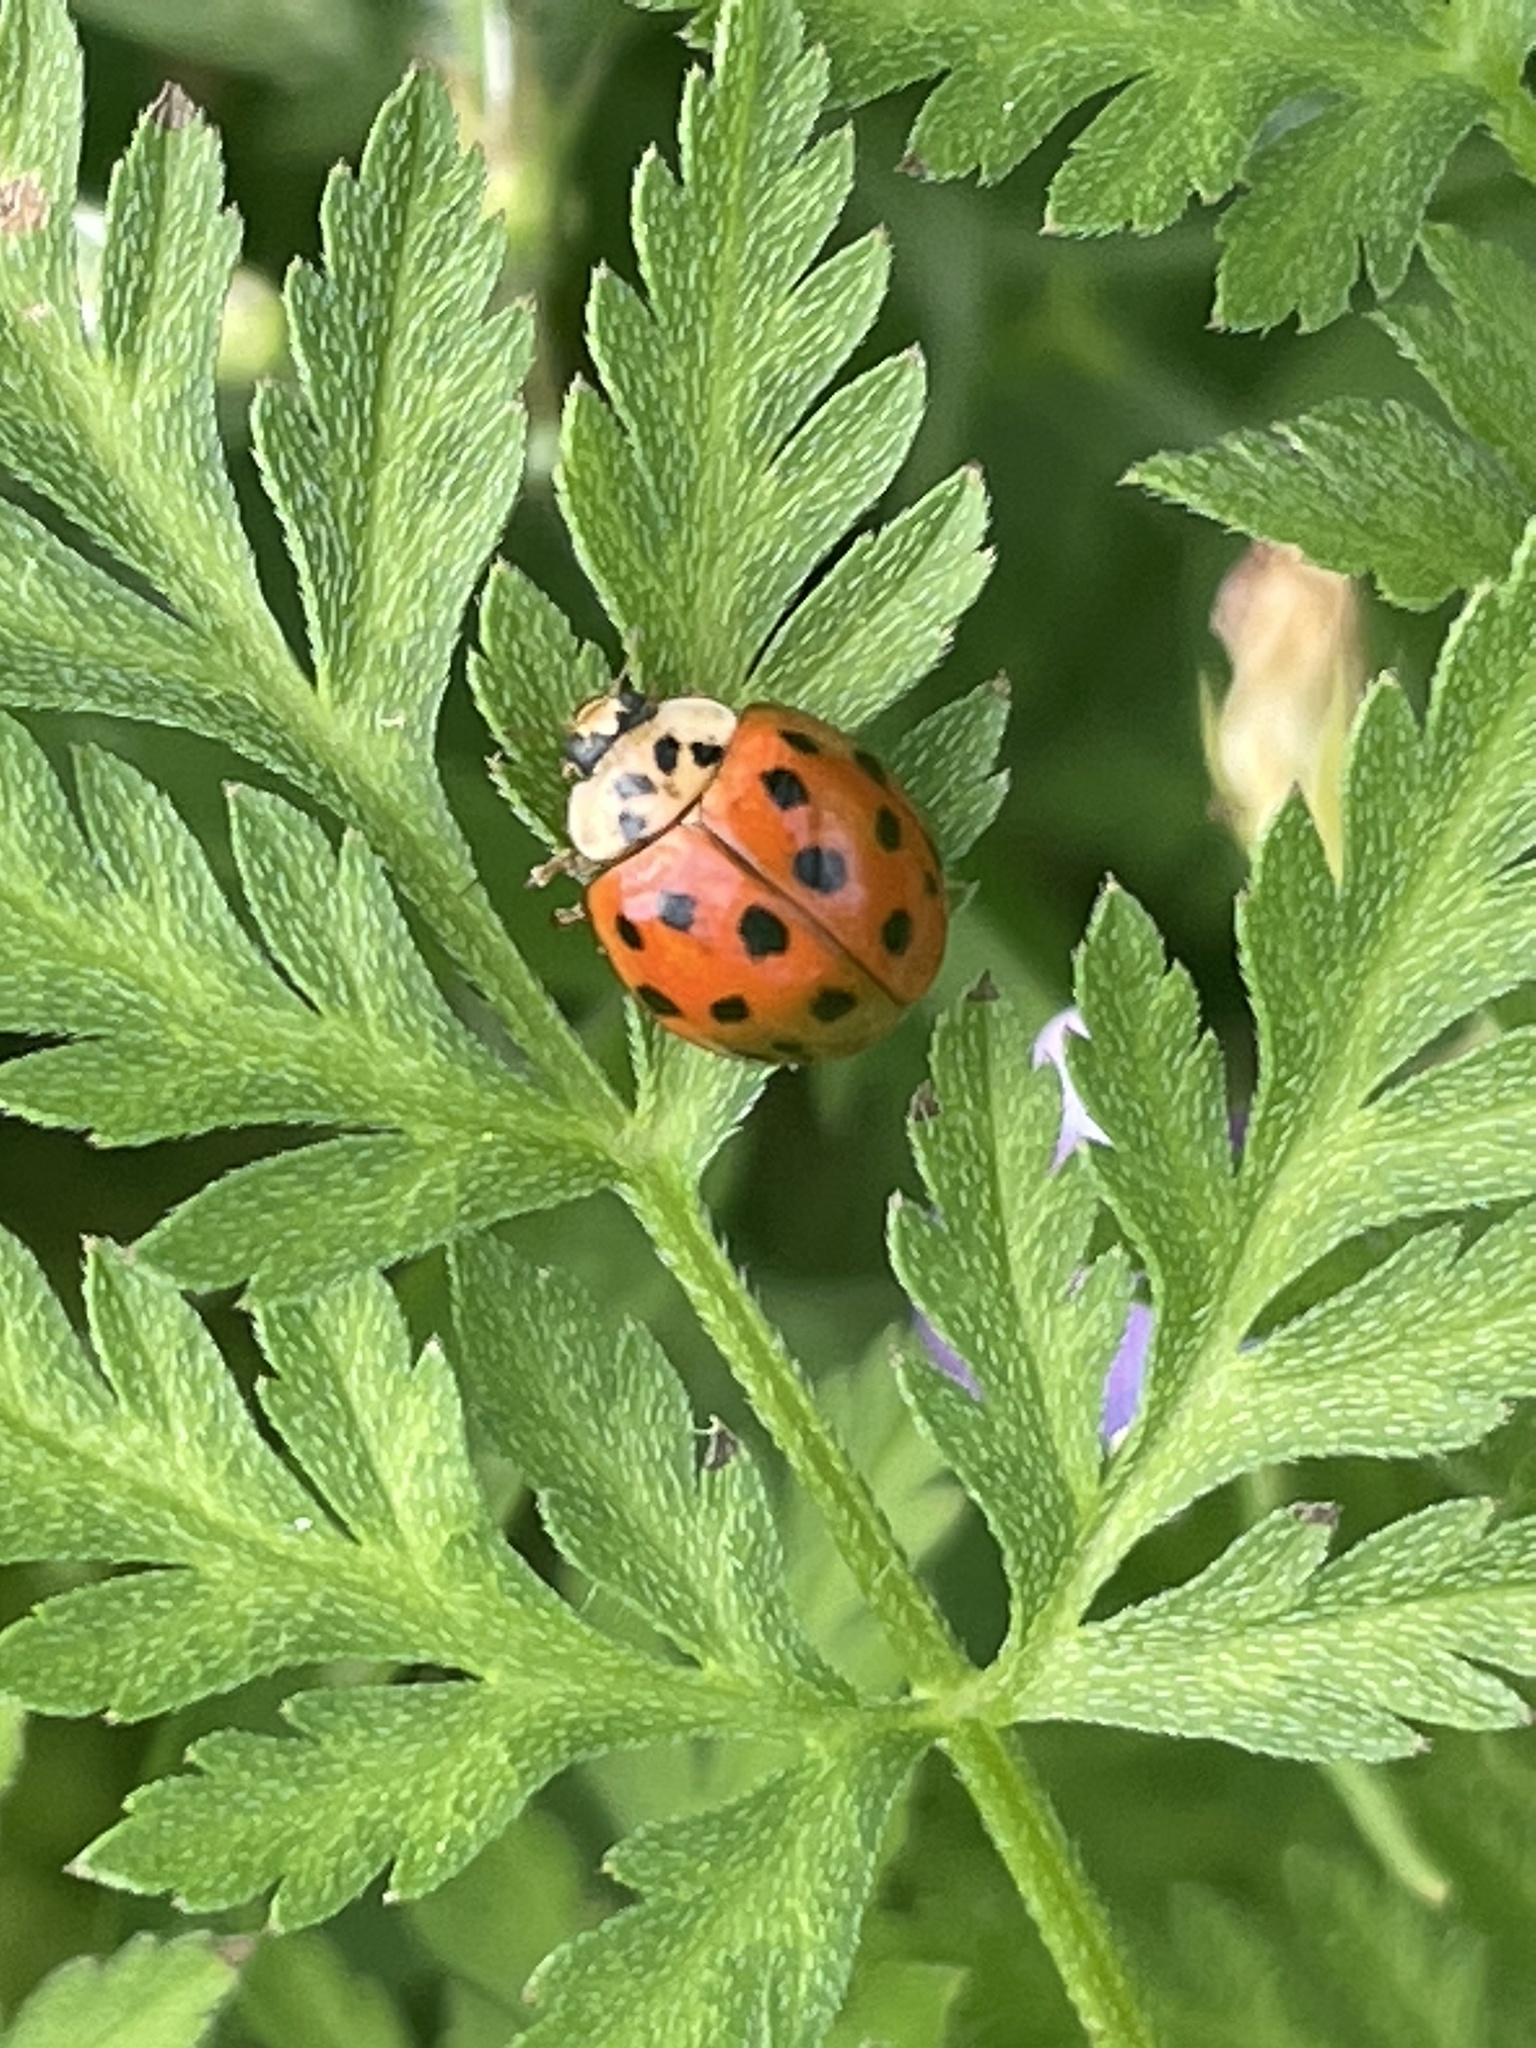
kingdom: Animalia
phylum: Arthropoda
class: Insecta
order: Coleoptera
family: Coccinellidae
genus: Harmonia
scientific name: Harmonia axyridis
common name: Harlequin ladybird
